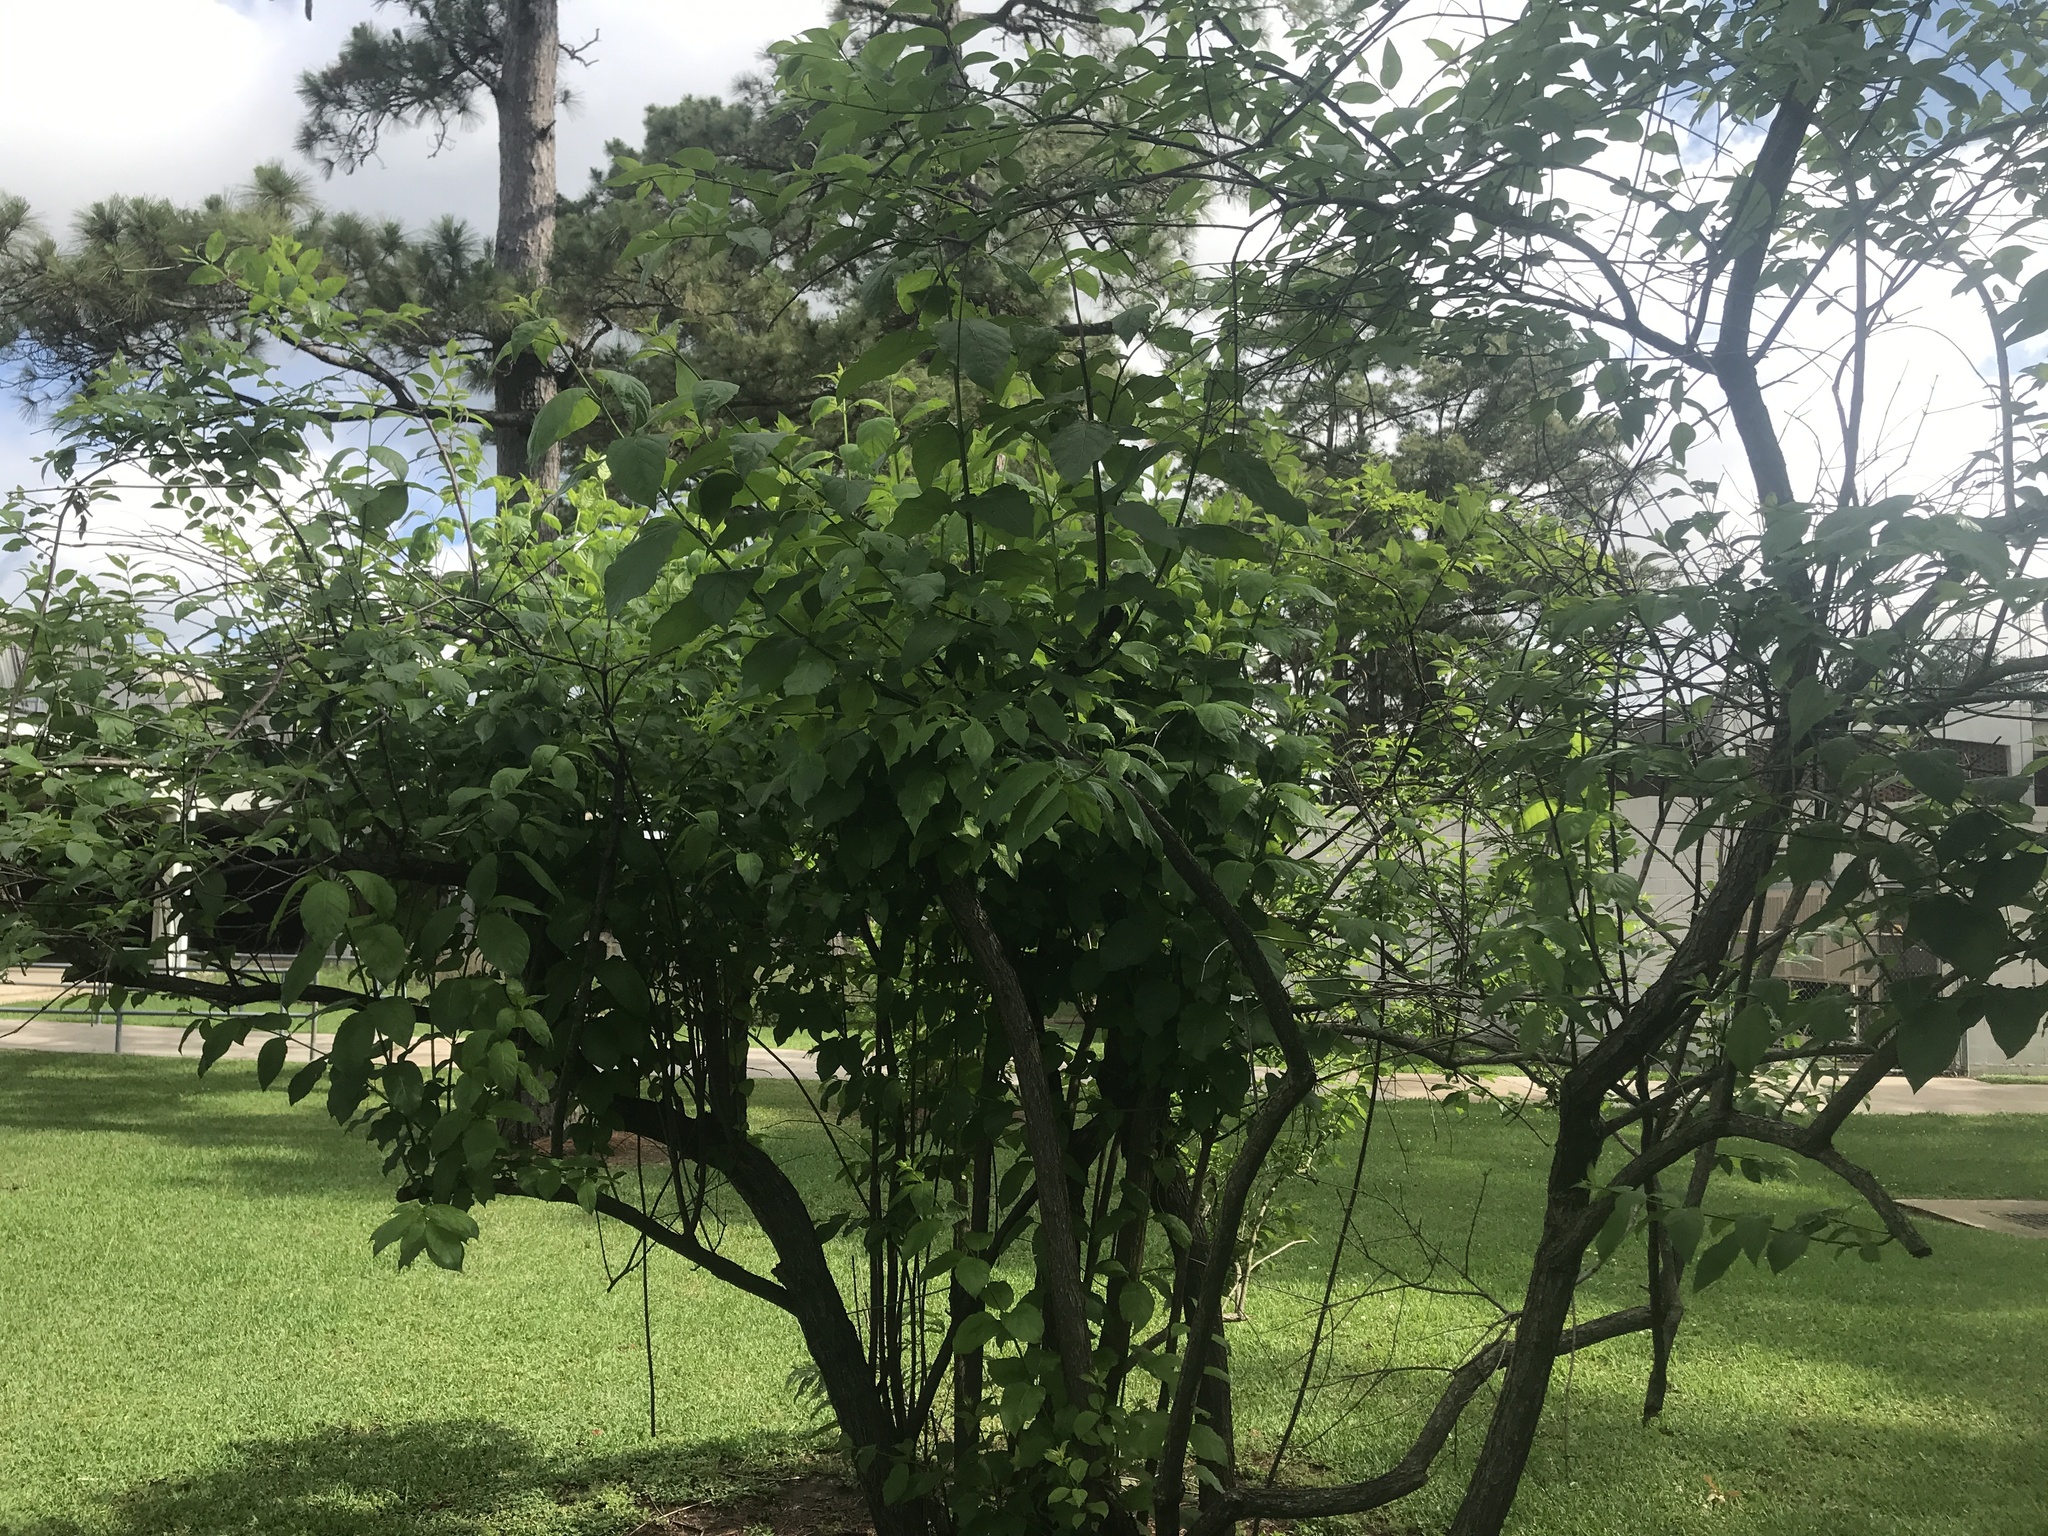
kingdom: Plantae
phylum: Tracheophyta
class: Magnoliopsida
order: Gentianales
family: Rubiaceae
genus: Cephalanthus
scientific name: Cephalanthus occidentalis
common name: Button-willow
